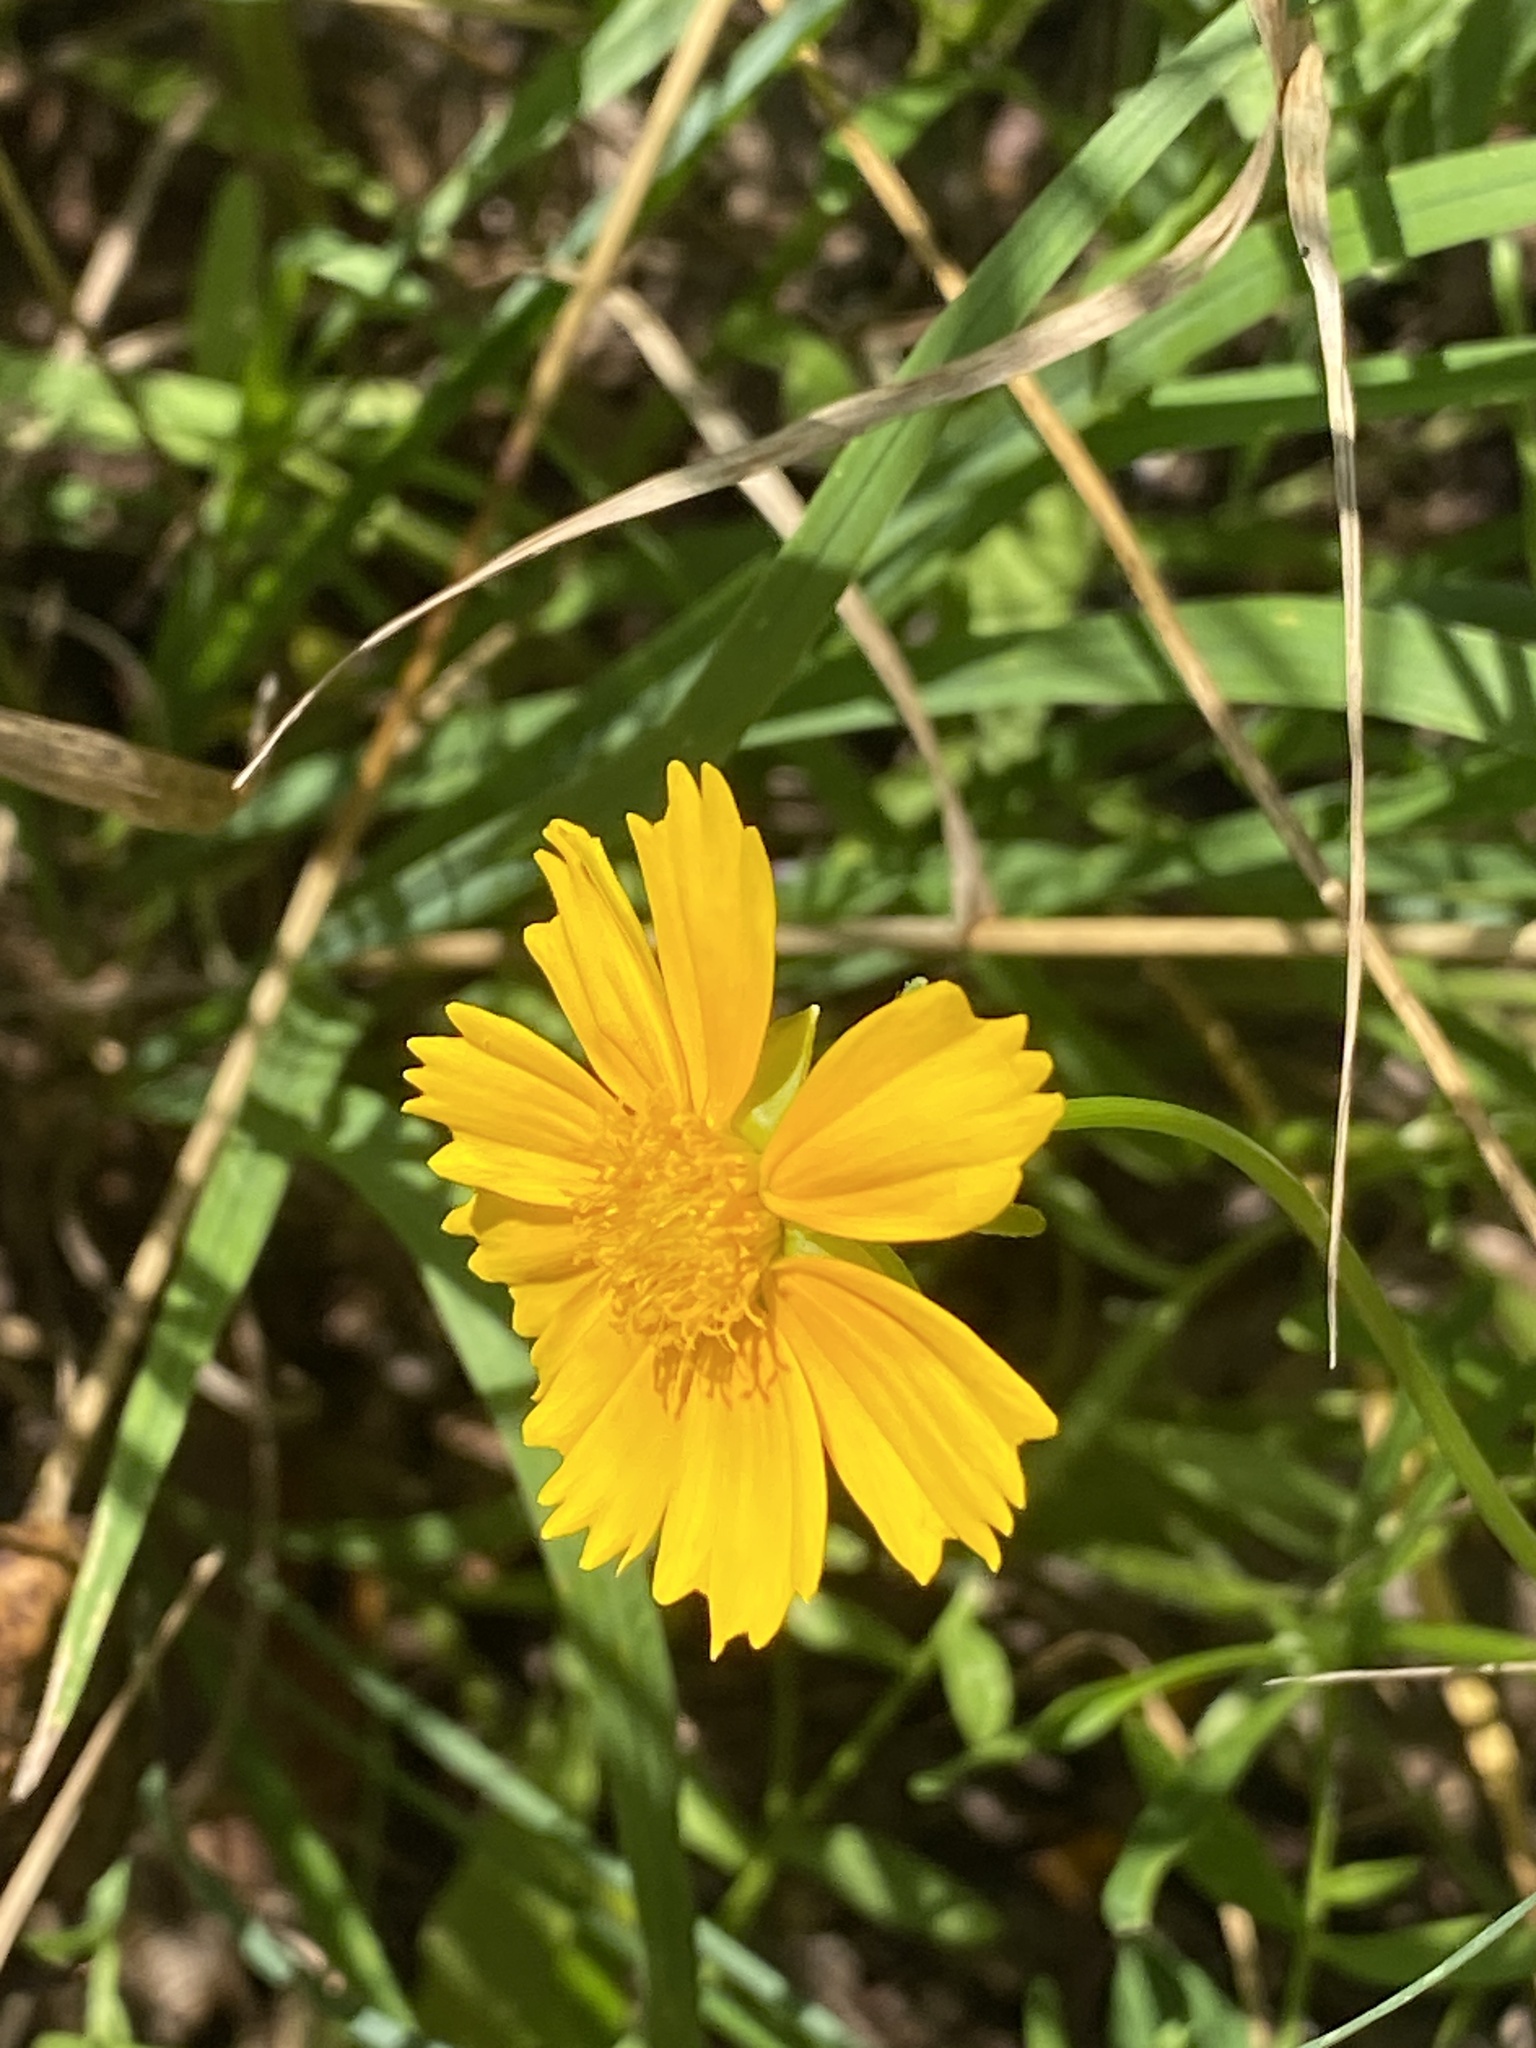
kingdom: Plantae
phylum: Tracheophyta
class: Magnoliopsida
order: Asterales
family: Asteraceae
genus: Coreopsis
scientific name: Coreopsis lanceolata
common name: Garden coreopsis
